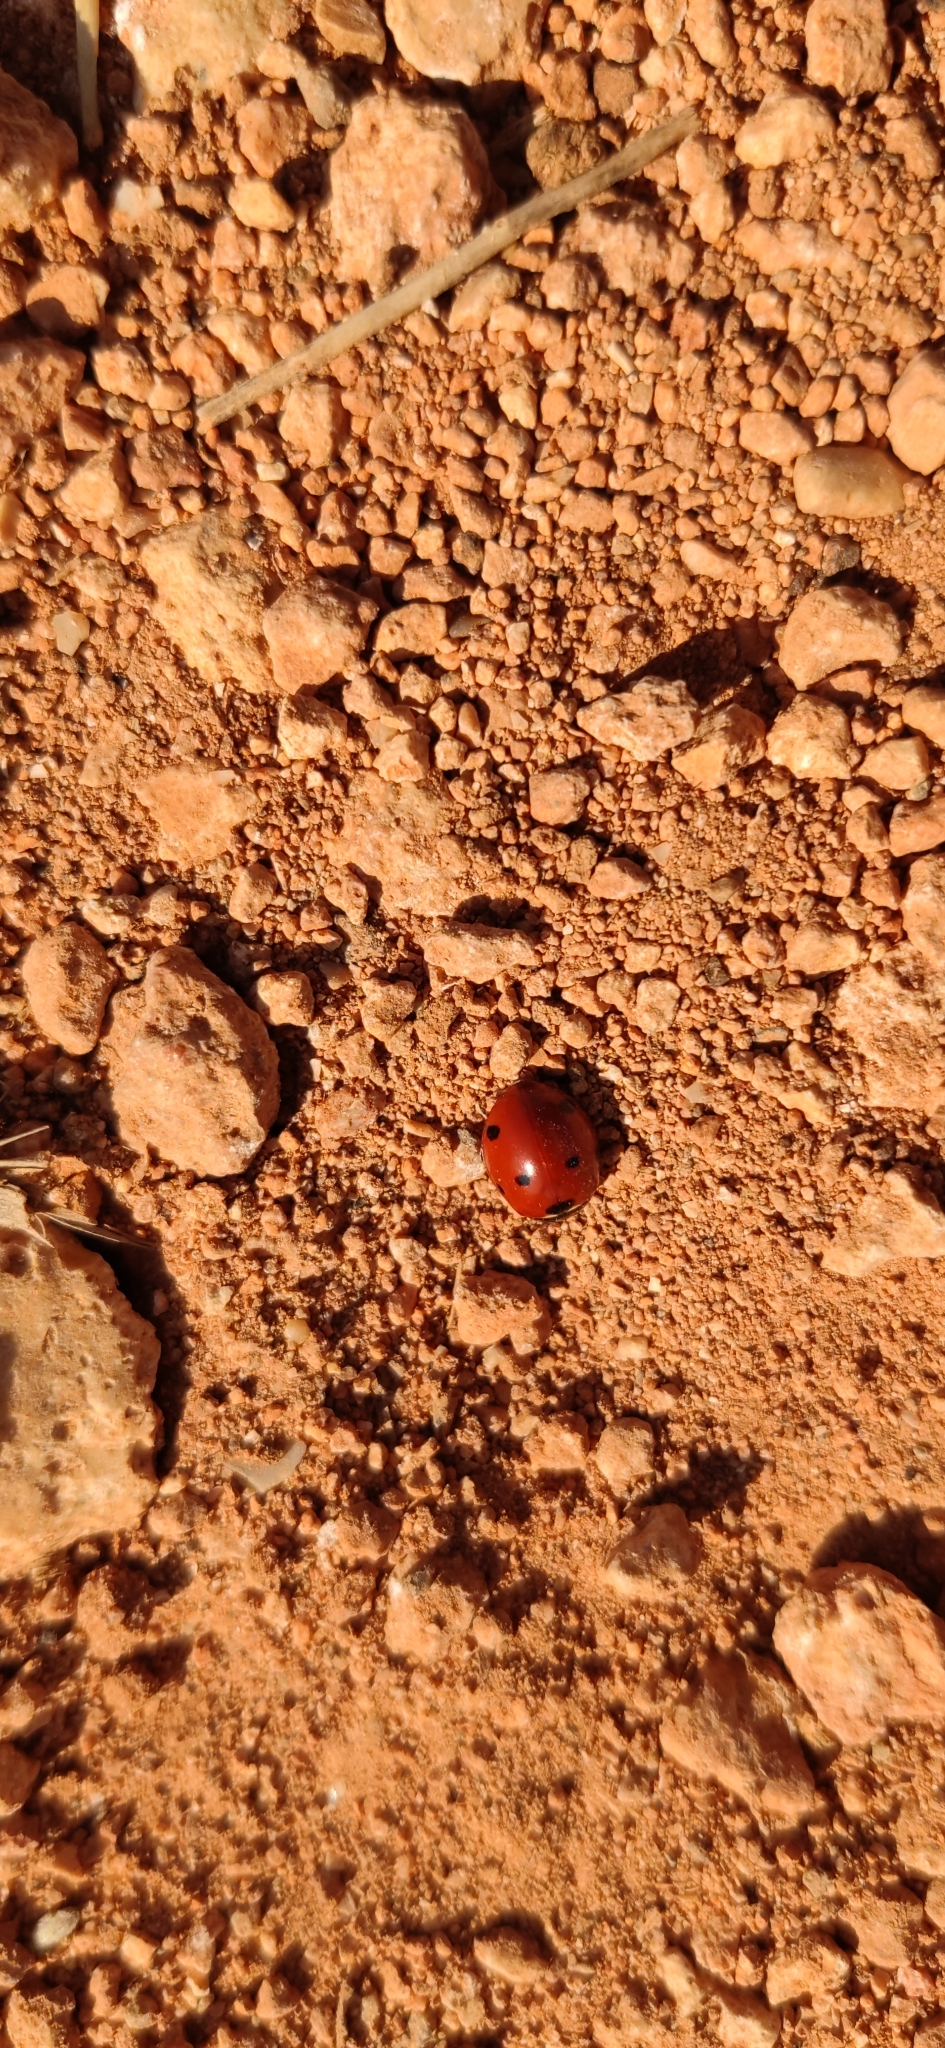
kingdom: Animalia
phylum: Arthropoda
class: Insecta
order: Coleoptera
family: Coccinellidae
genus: Coccinella
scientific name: Coccinella septempunctata
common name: Sevenspotted lady beetle
